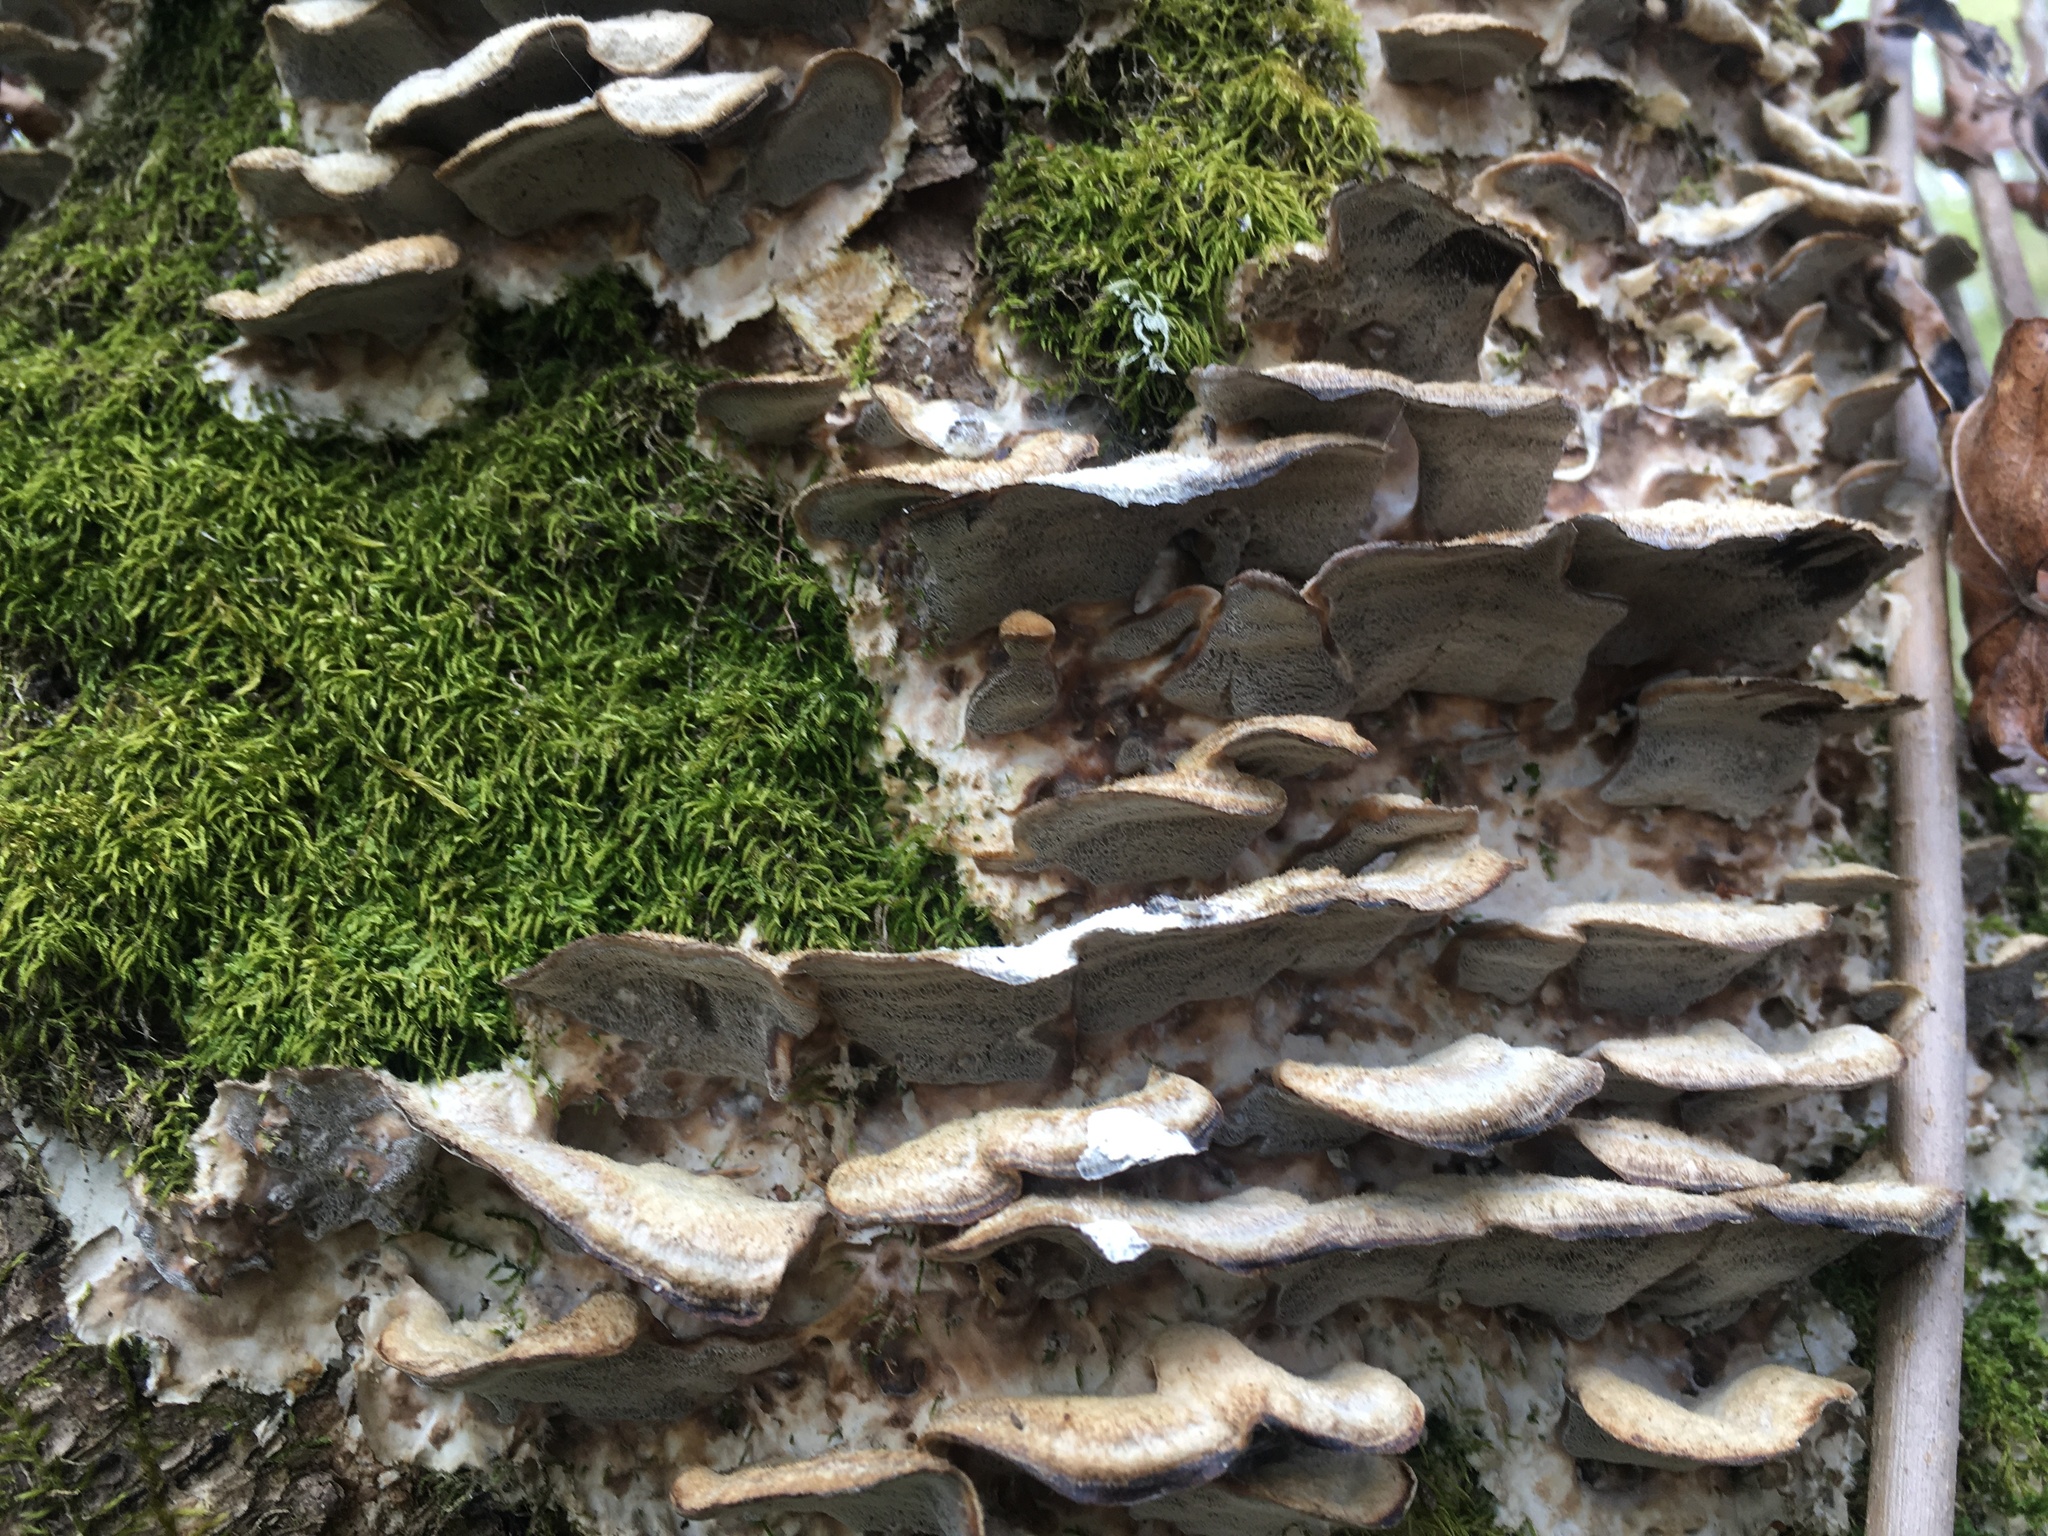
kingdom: Fungi
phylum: Basidiomycota
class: Agaricomycetes
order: Polyporales
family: Phanerochaetaceae
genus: Bjerkandera
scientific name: Bjerkandera adusta
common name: Smoky bracket
